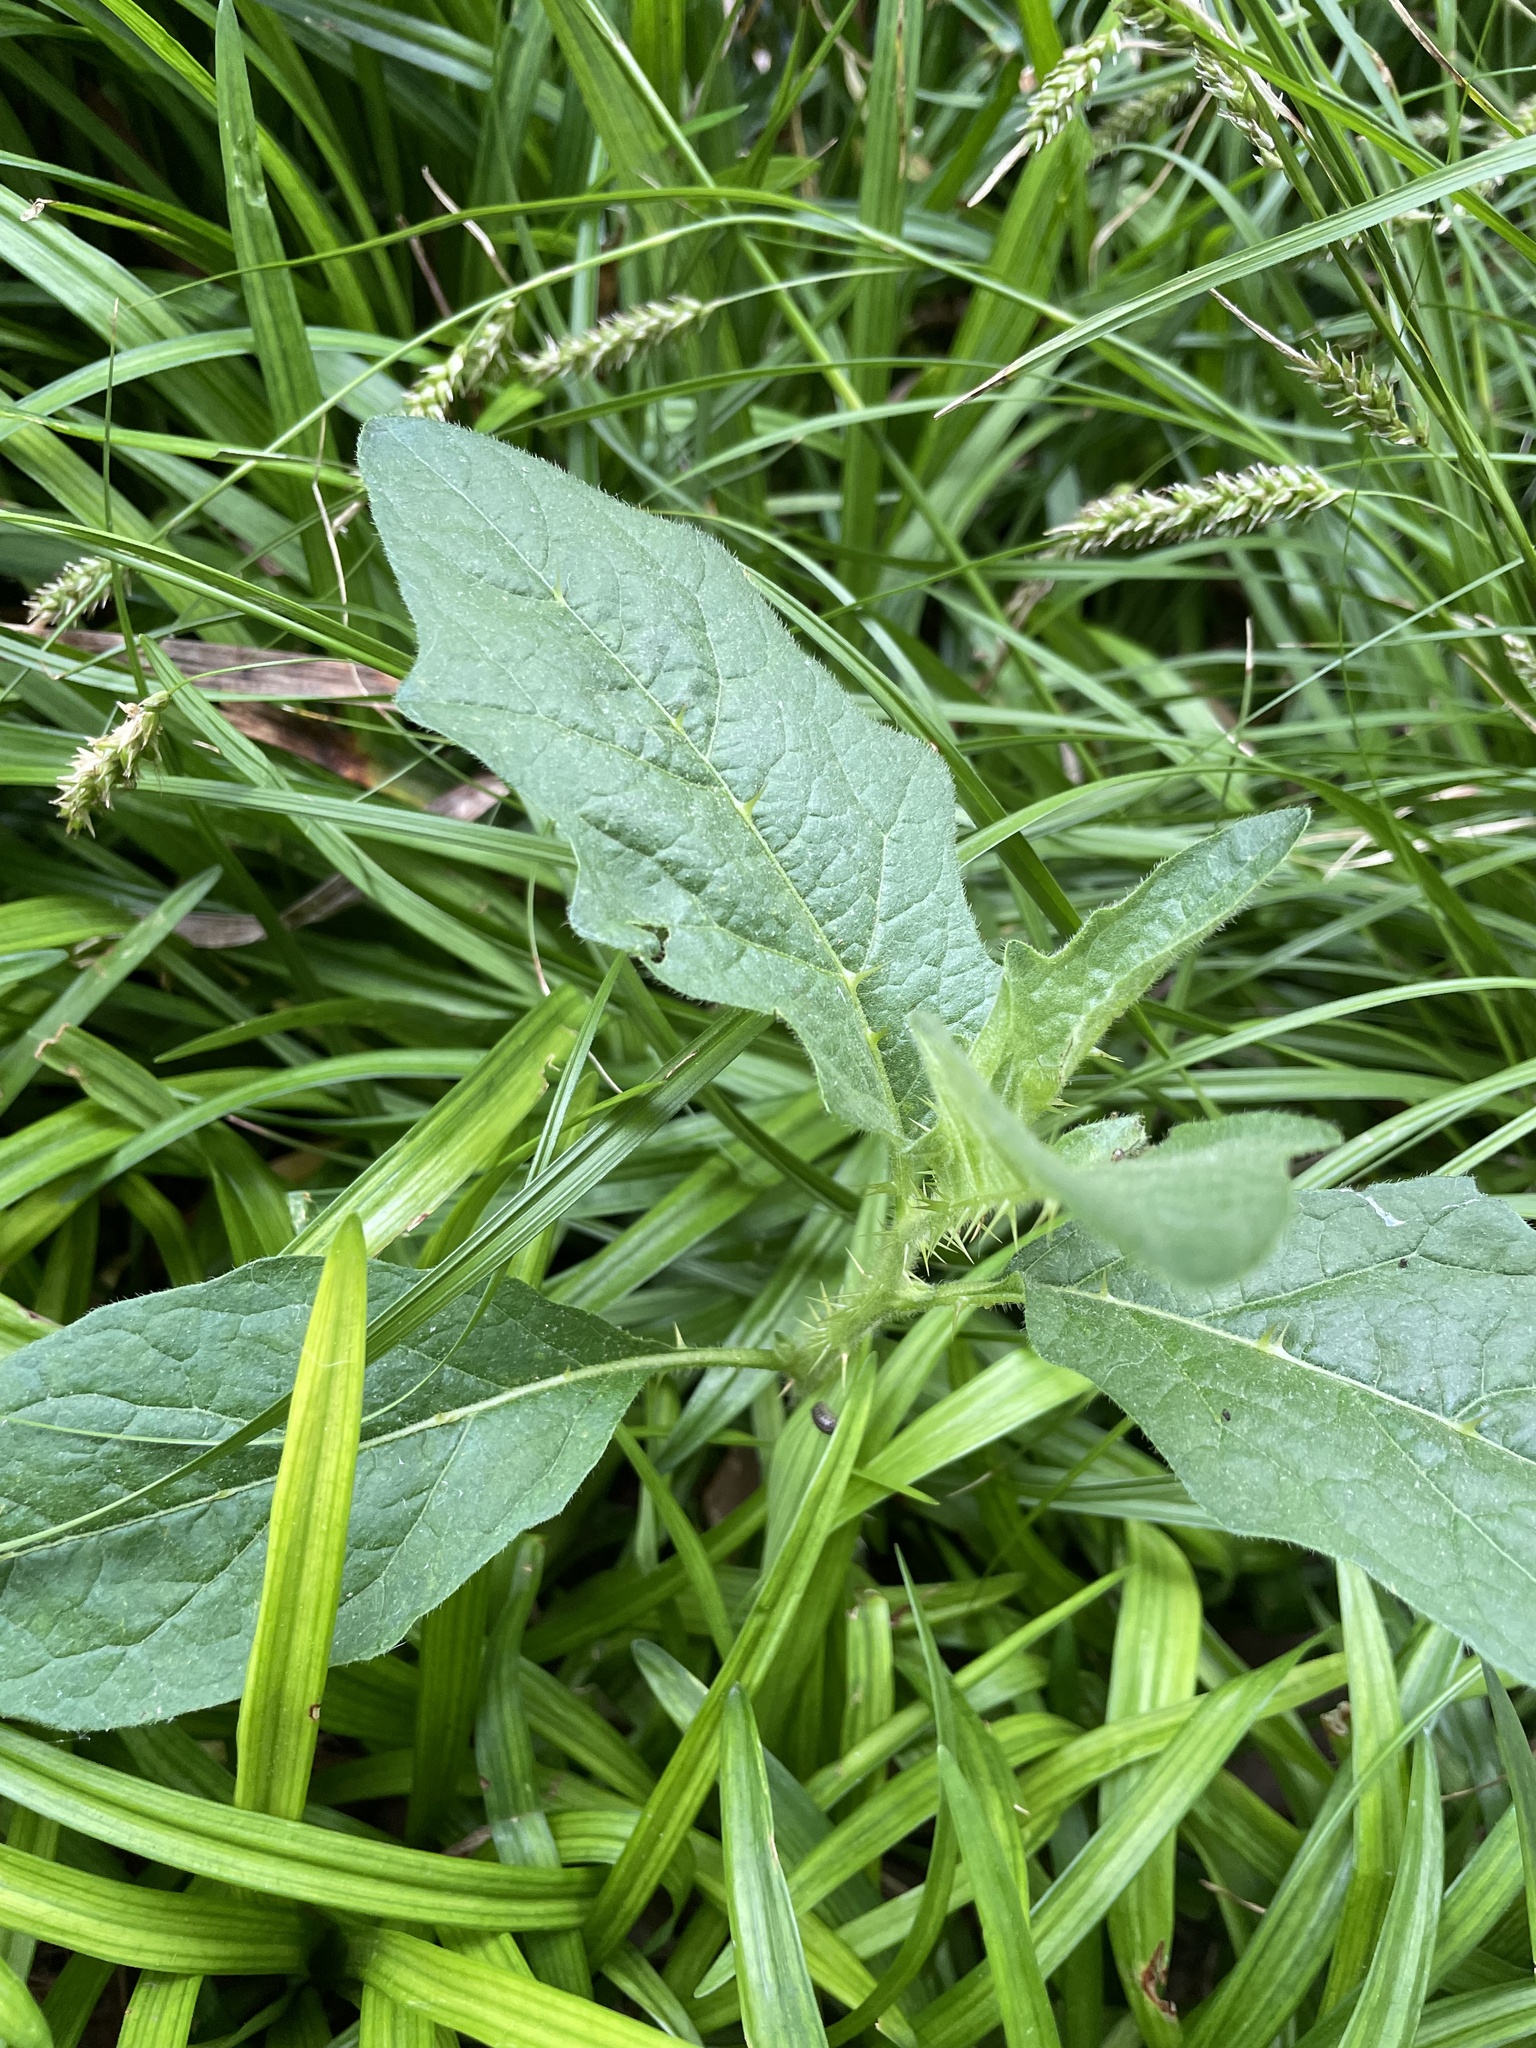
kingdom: Plantae
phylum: Tracheophyta
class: Magnoliopsida
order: Solanales
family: Solanaceae
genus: Solanum
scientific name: Solanum carolinense
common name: Horse-nettle
